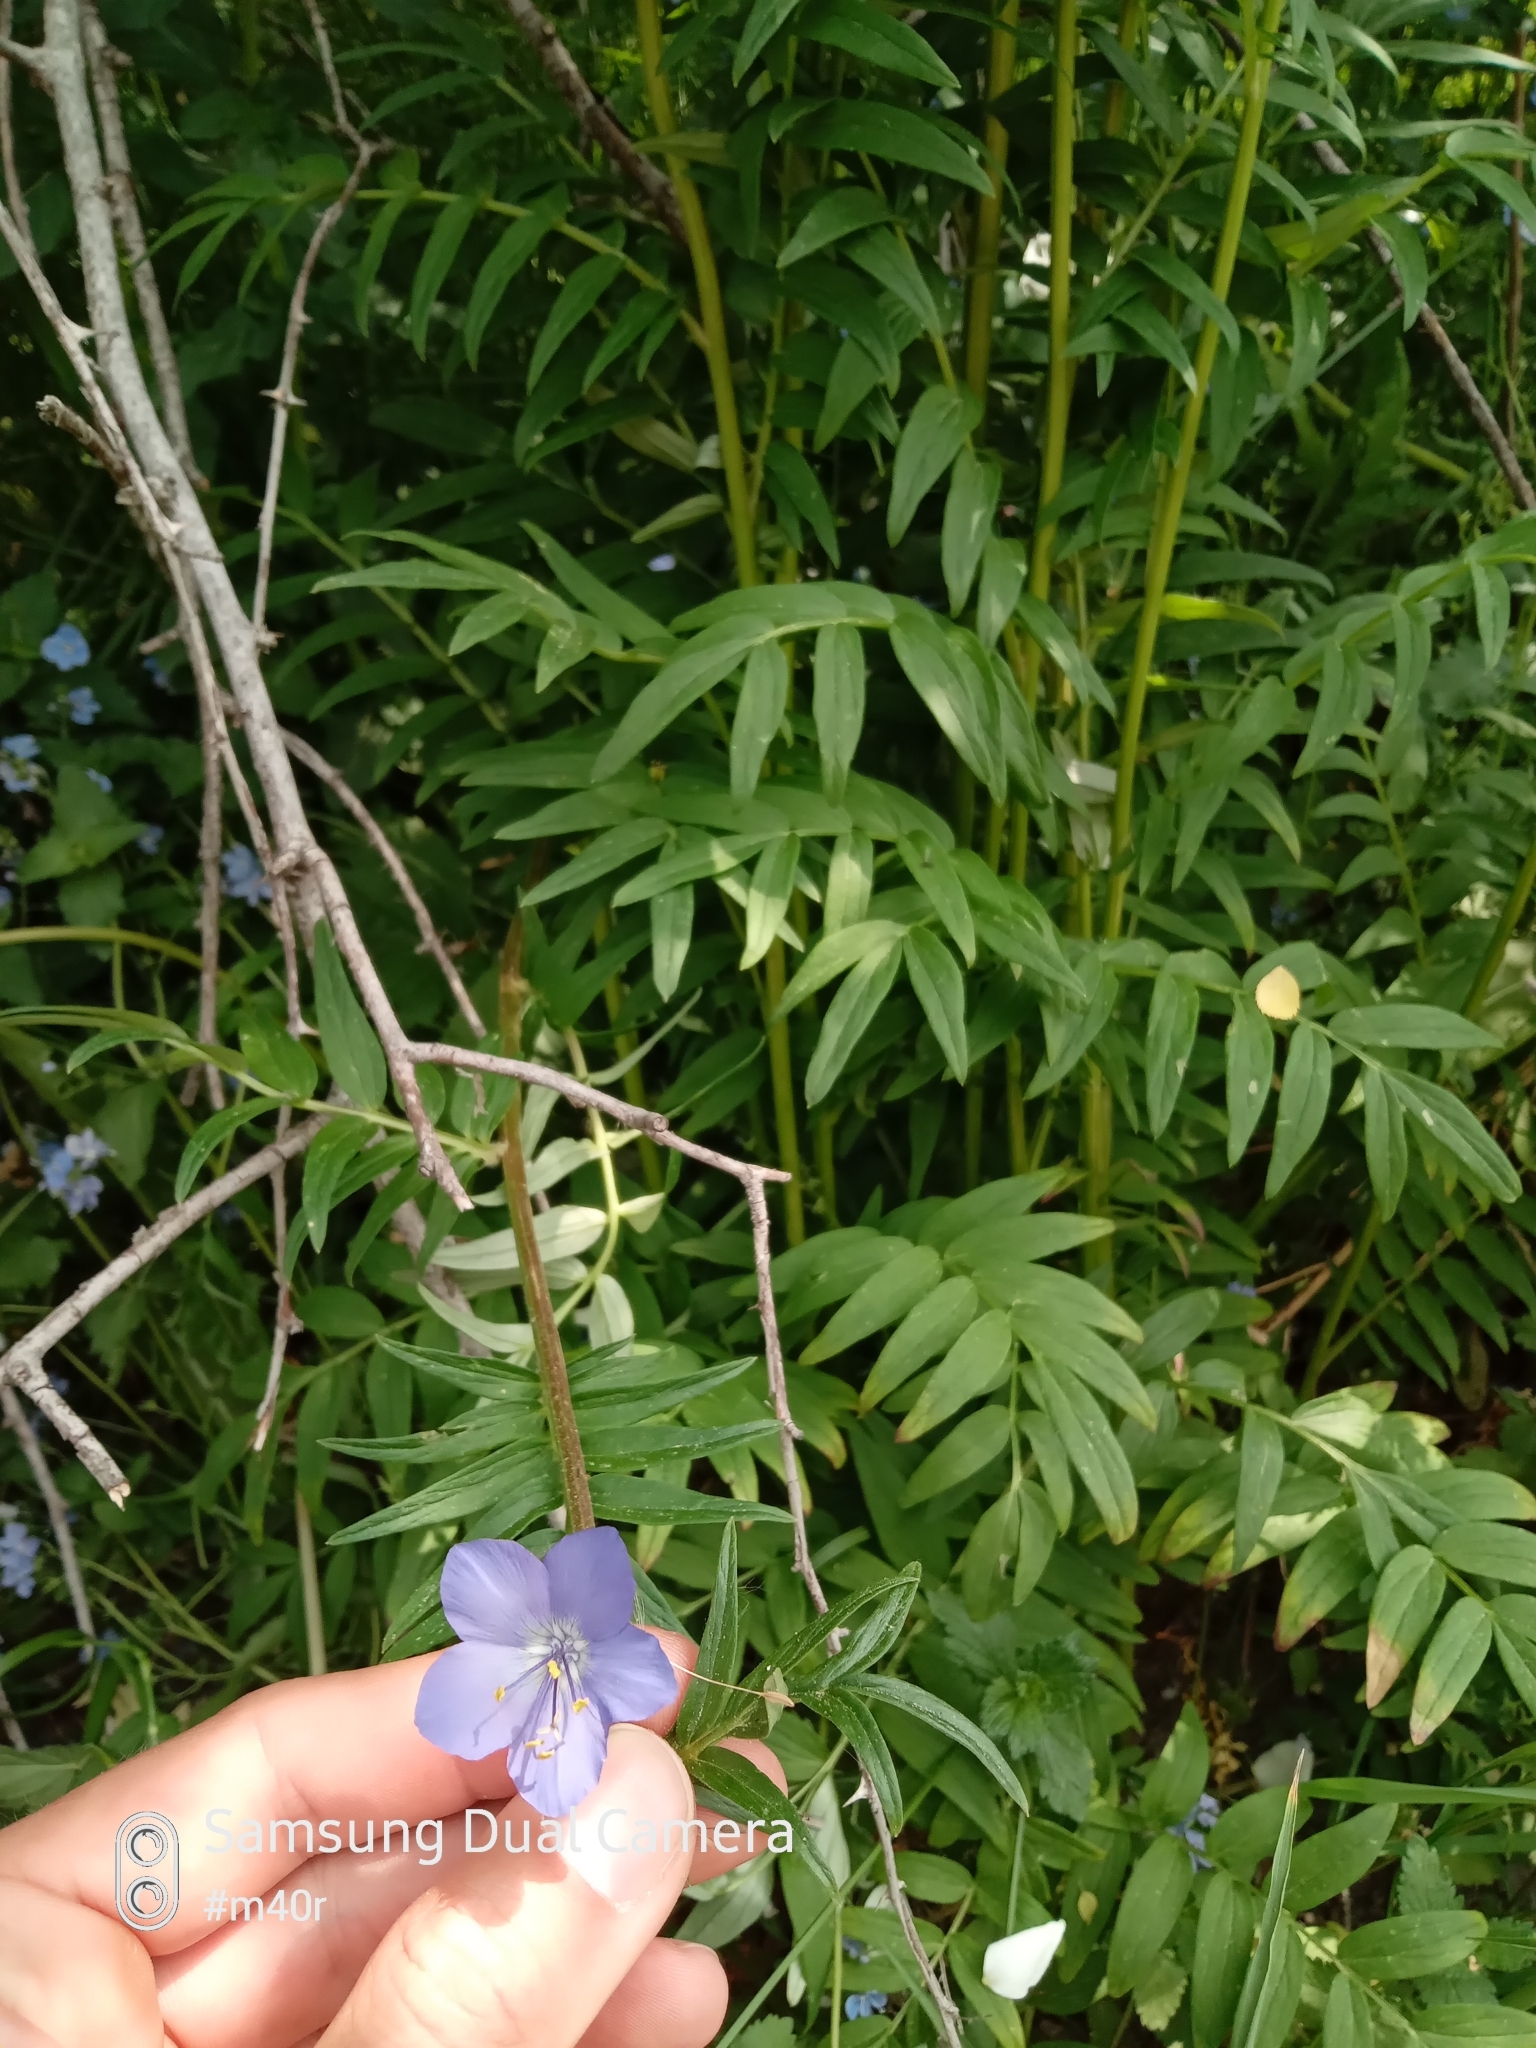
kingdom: Plantae
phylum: Tracheophyta
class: Magnoliopsida
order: Ericales
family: Polemoniaceae
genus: Polemonium
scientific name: Polemonium caucasicum
